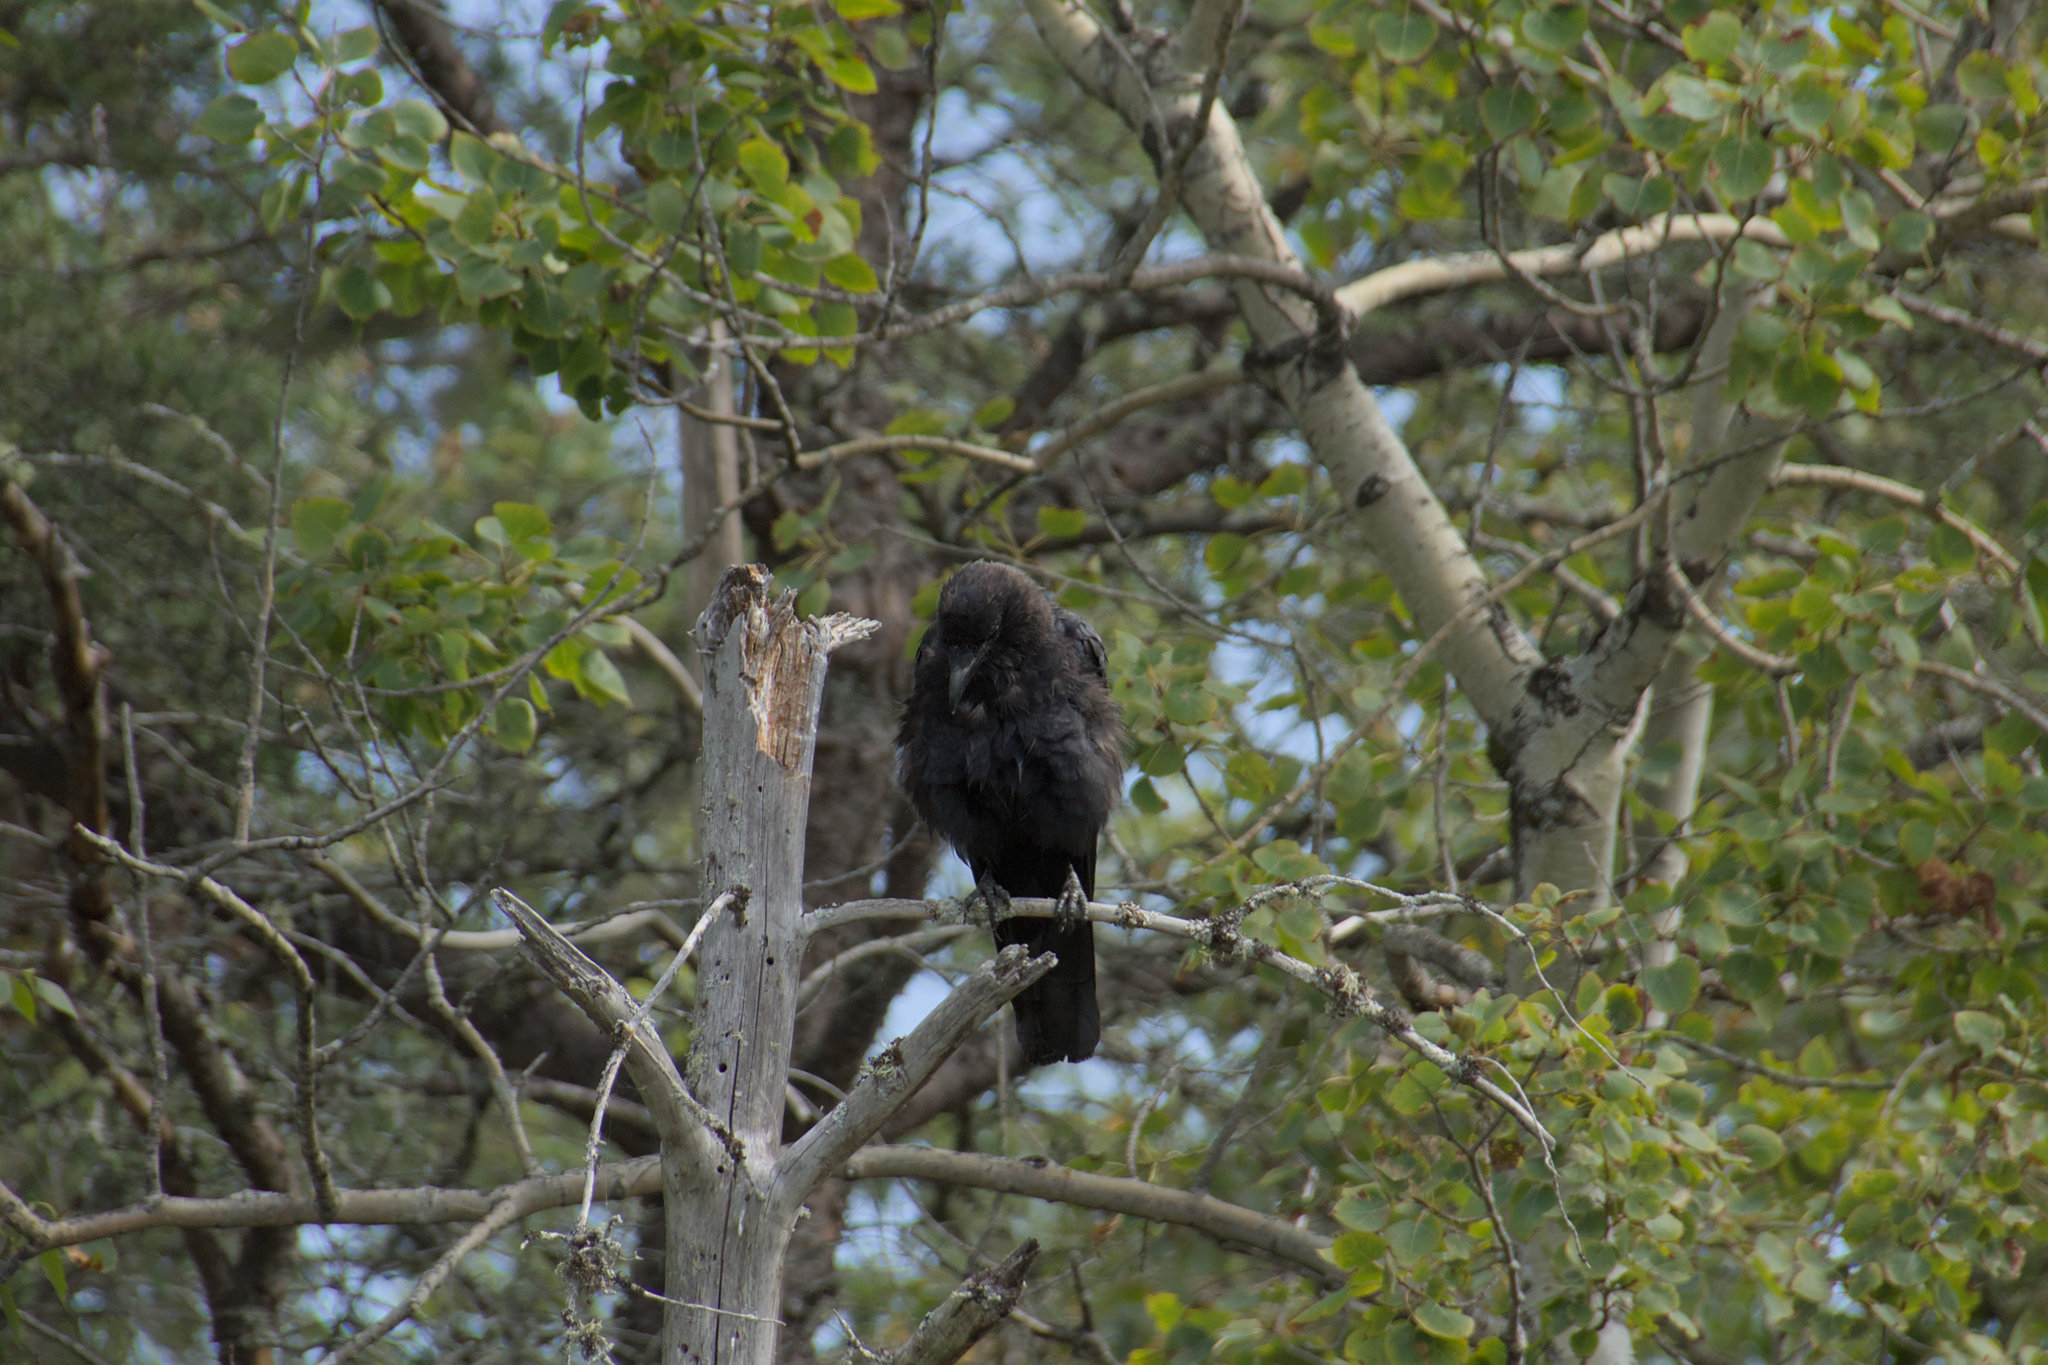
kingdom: Animalia
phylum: Chordata
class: Aves
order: Passeriformes
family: Corvidae
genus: Corvus
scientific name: Corvus corax
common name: Common raven
